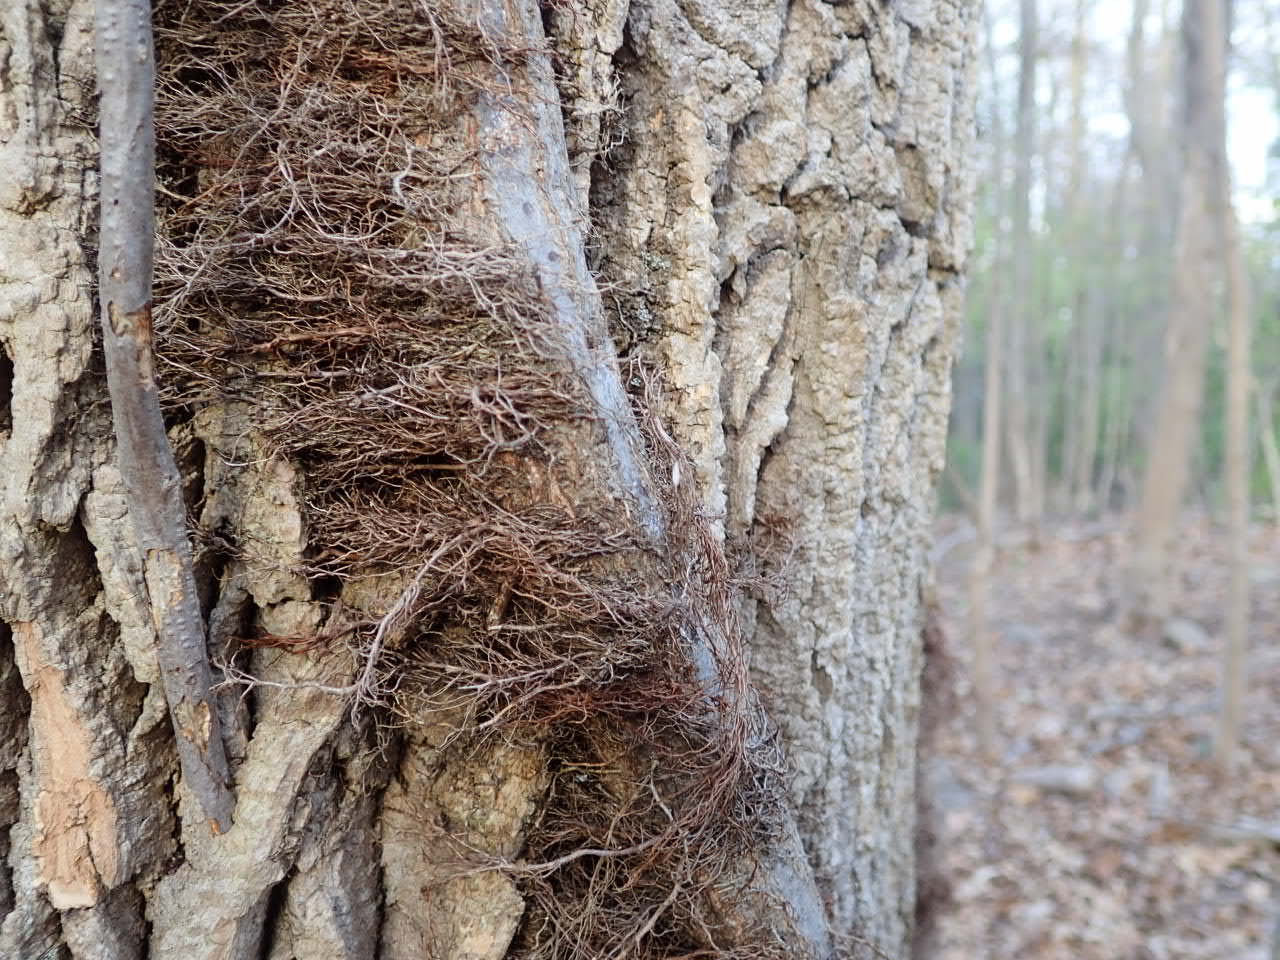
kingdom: Plantae
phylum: Tracheophyta
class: Magnoliopsida
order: Sapindales
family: Anacardiaceae
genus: Toxicodendron
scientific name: Toxicodendron radicans
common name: Poison ivy
